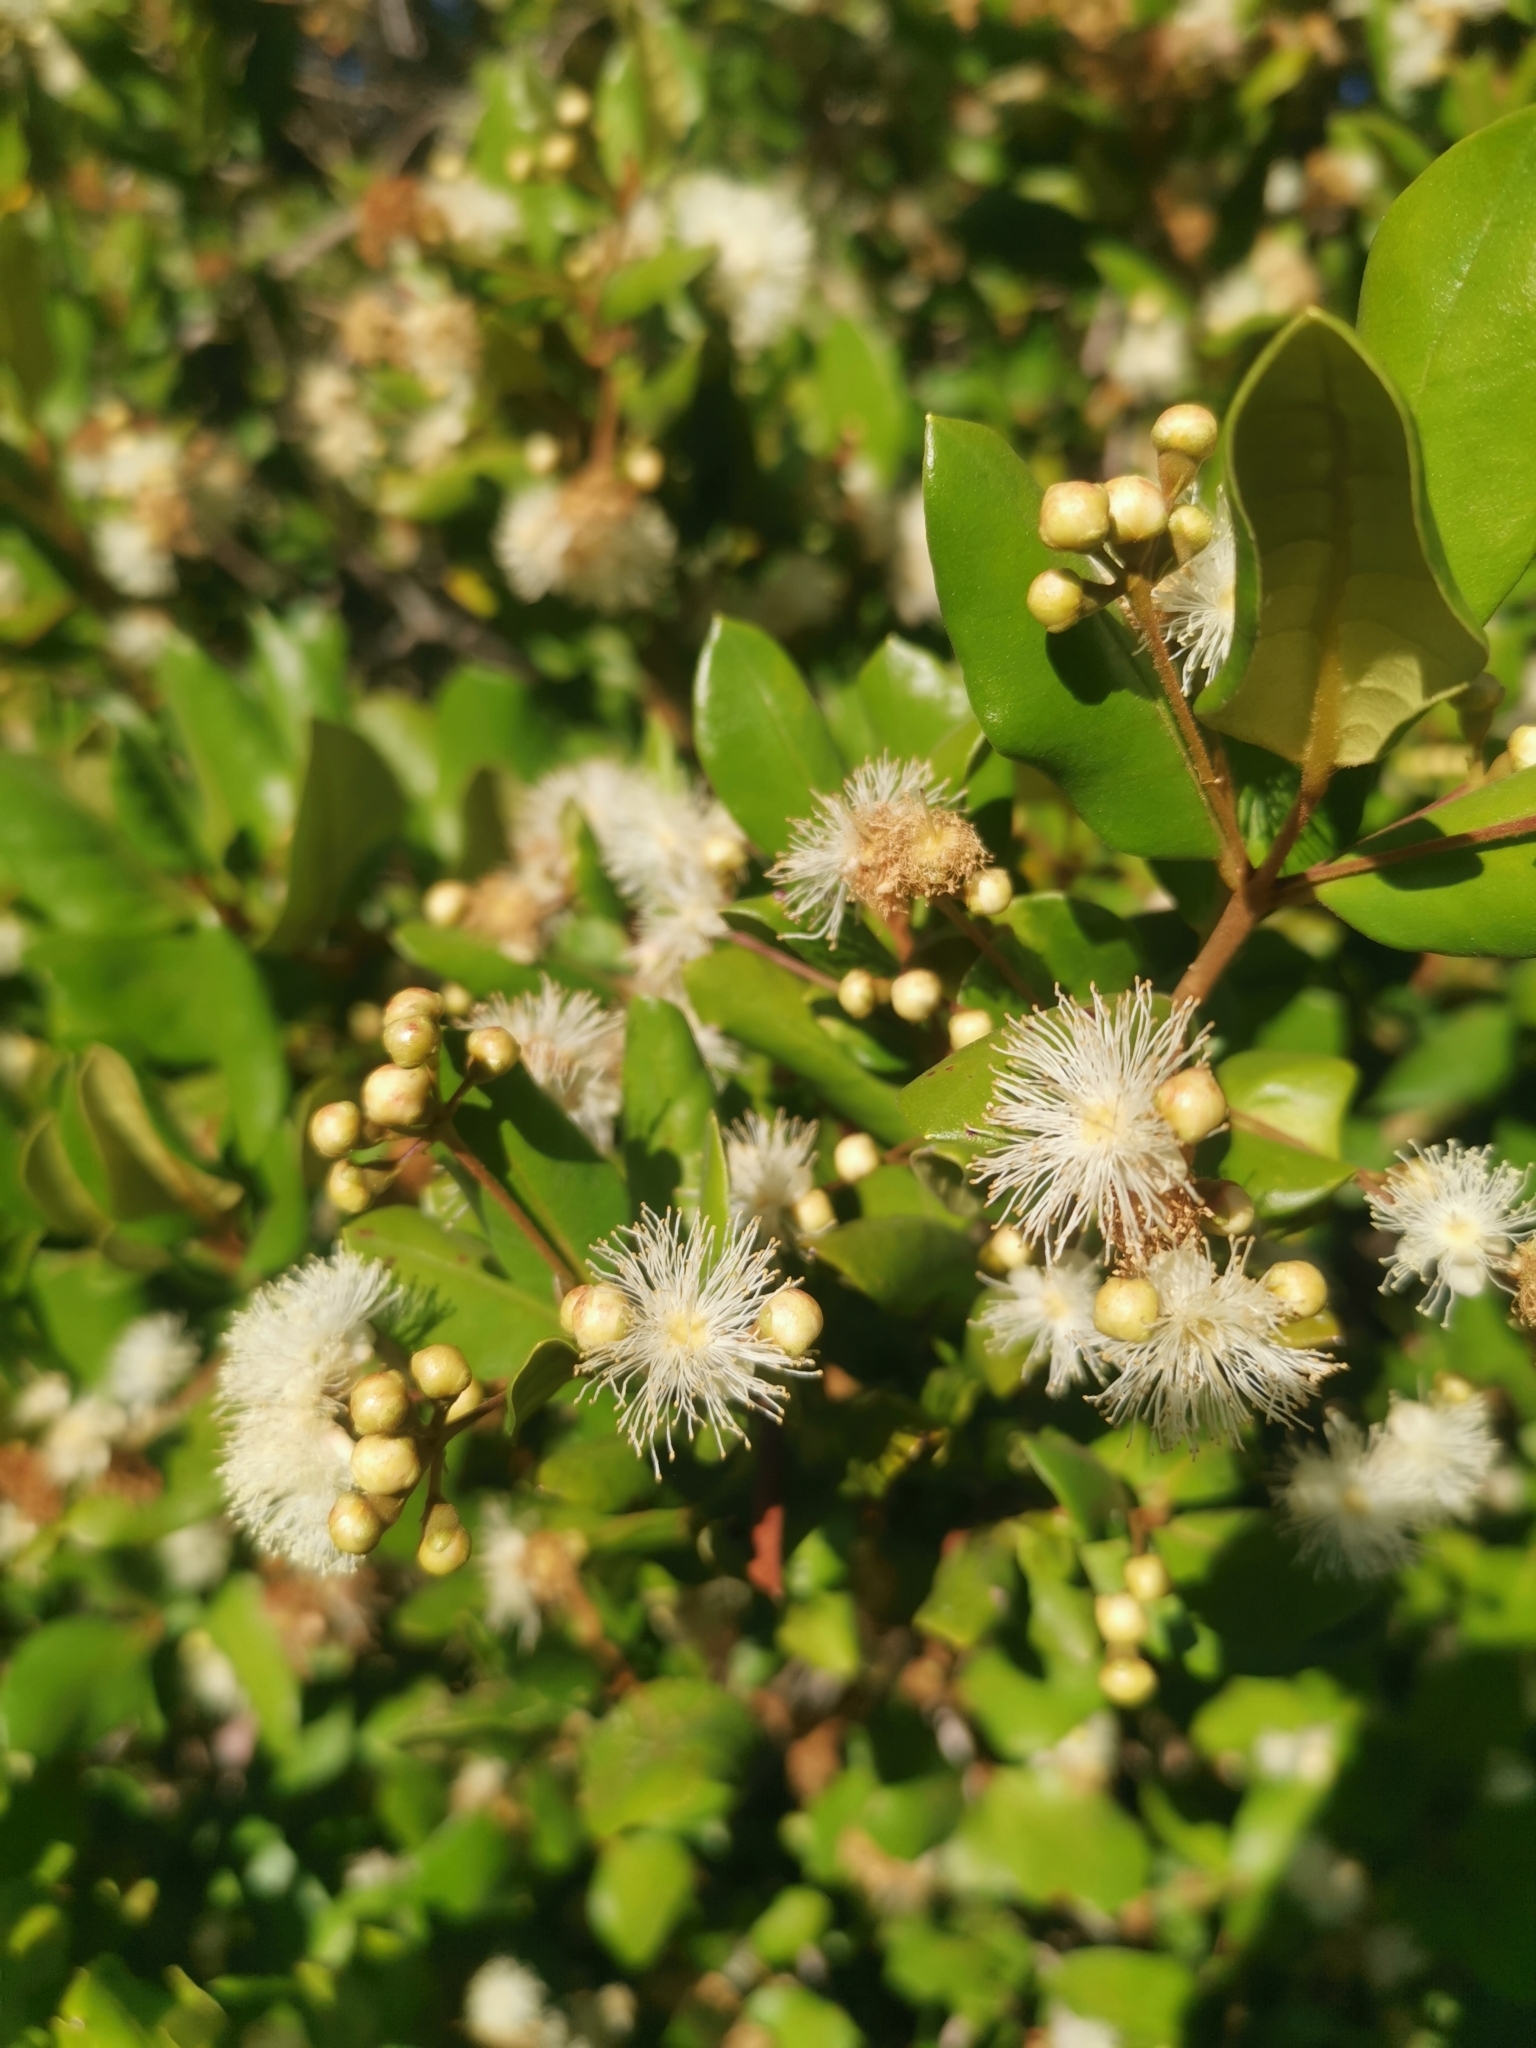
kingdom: Plantae
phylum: Tracheophyta
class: Magnoliopsida
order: Myrtales
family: Myrtaceae
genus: Myrceugenia
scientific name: Myrceugenia exsucca
